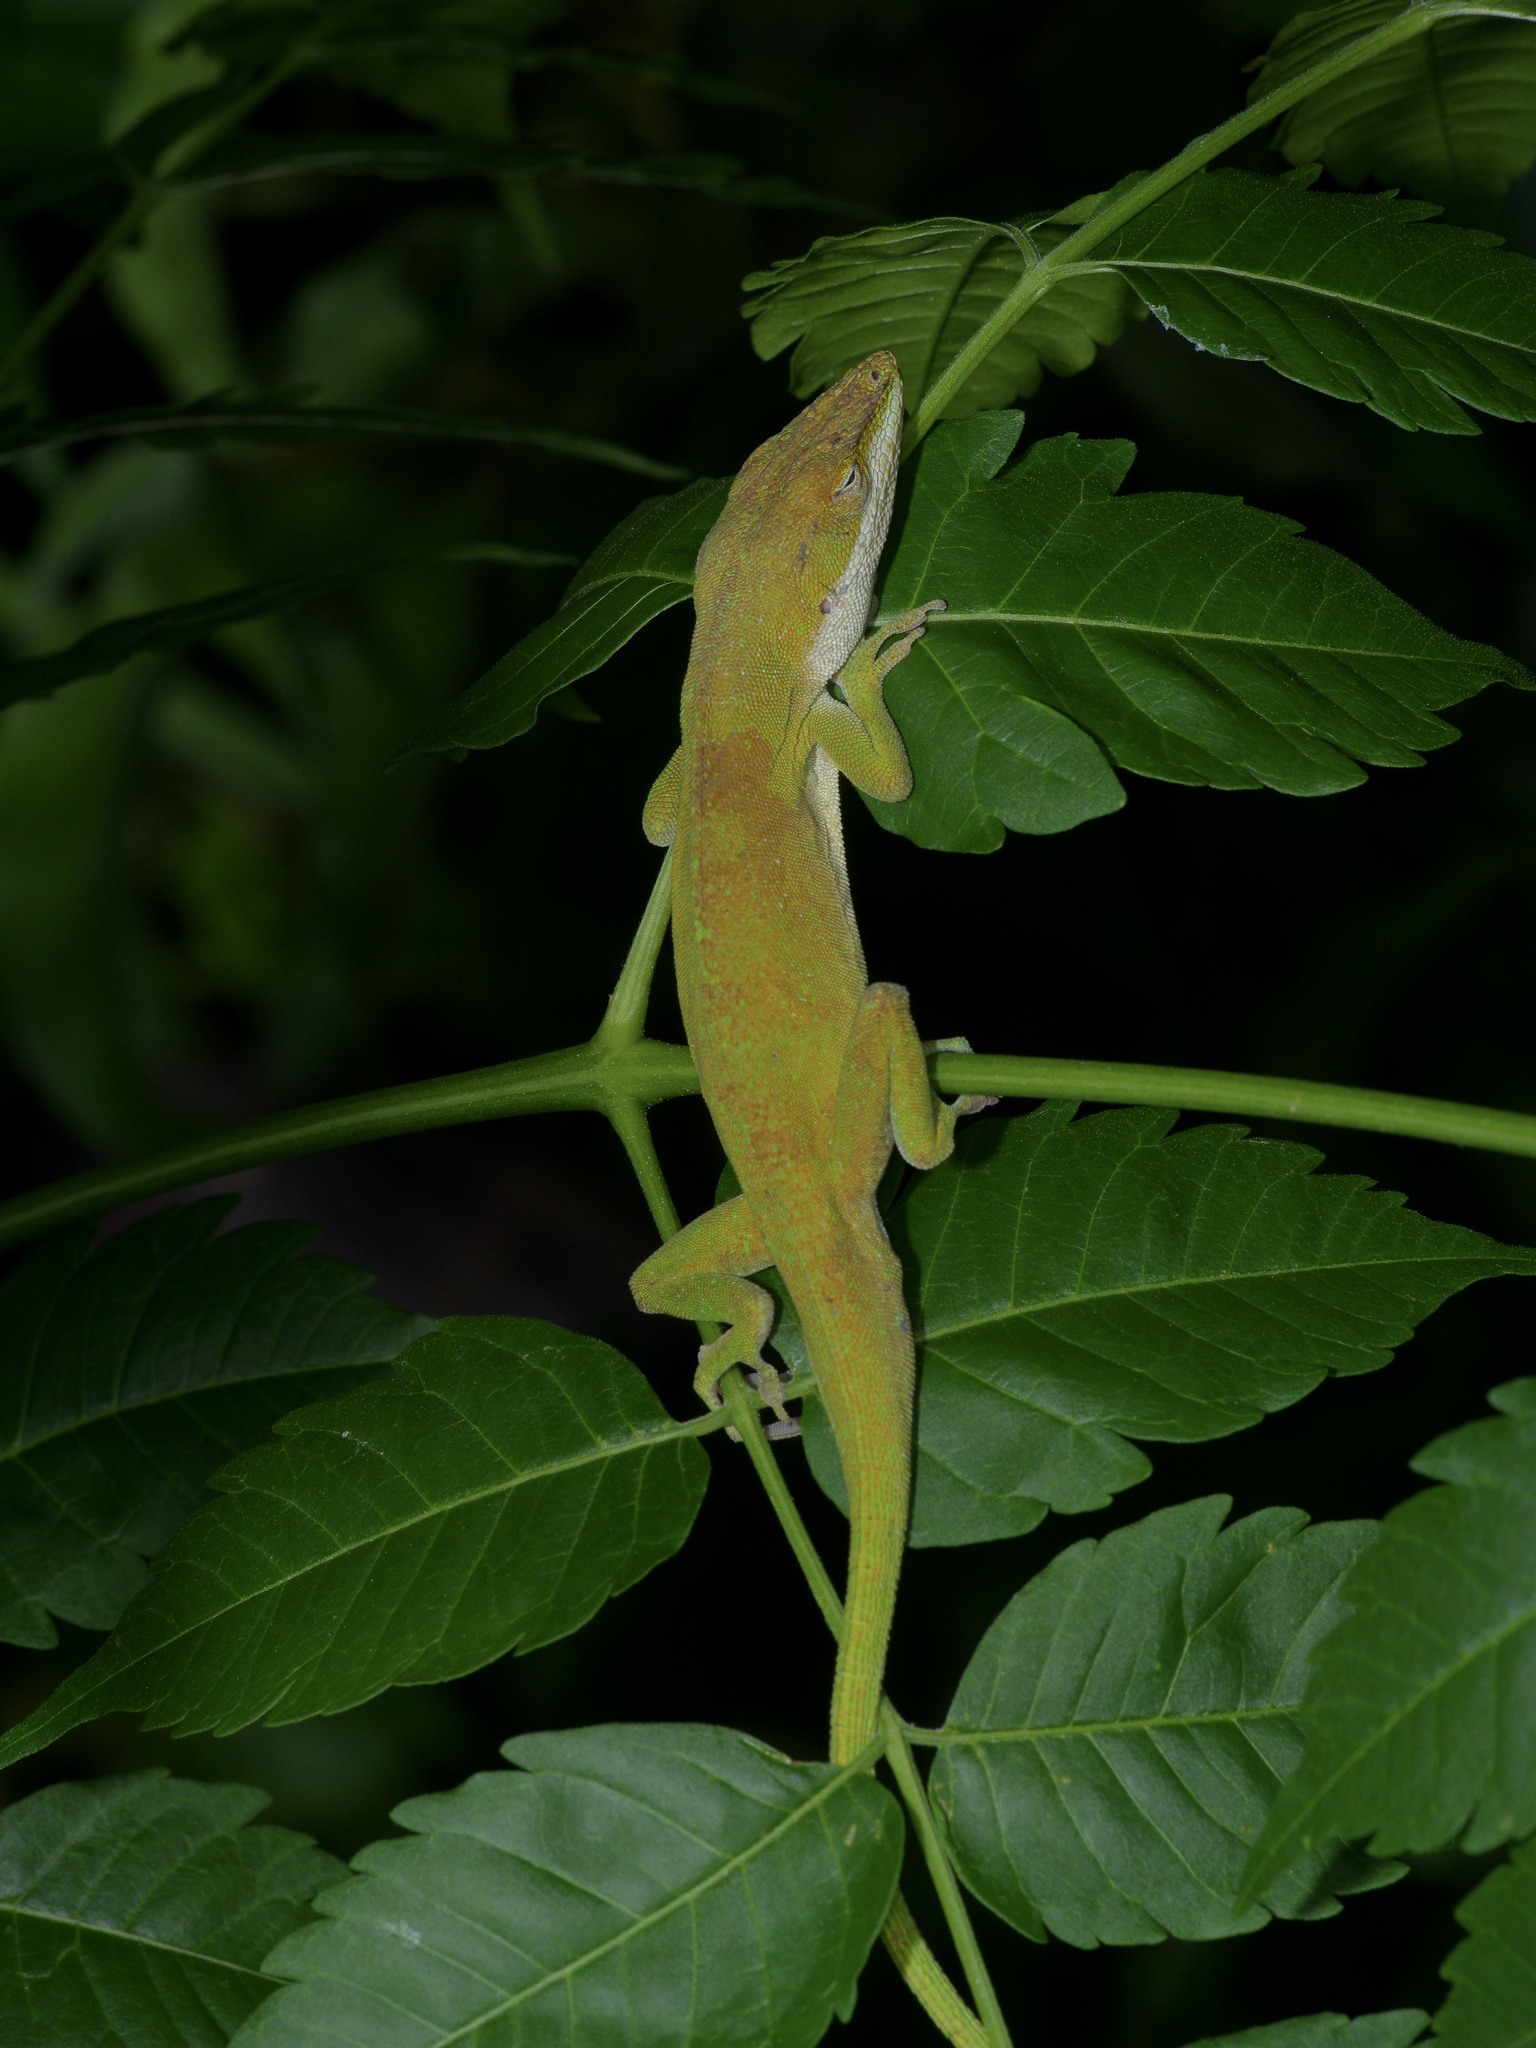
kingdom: Animalia
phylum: Chordata
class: Squamata
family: Dactyloidae
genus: Anolis
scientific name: Anolis carolinensis
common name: Green anole
